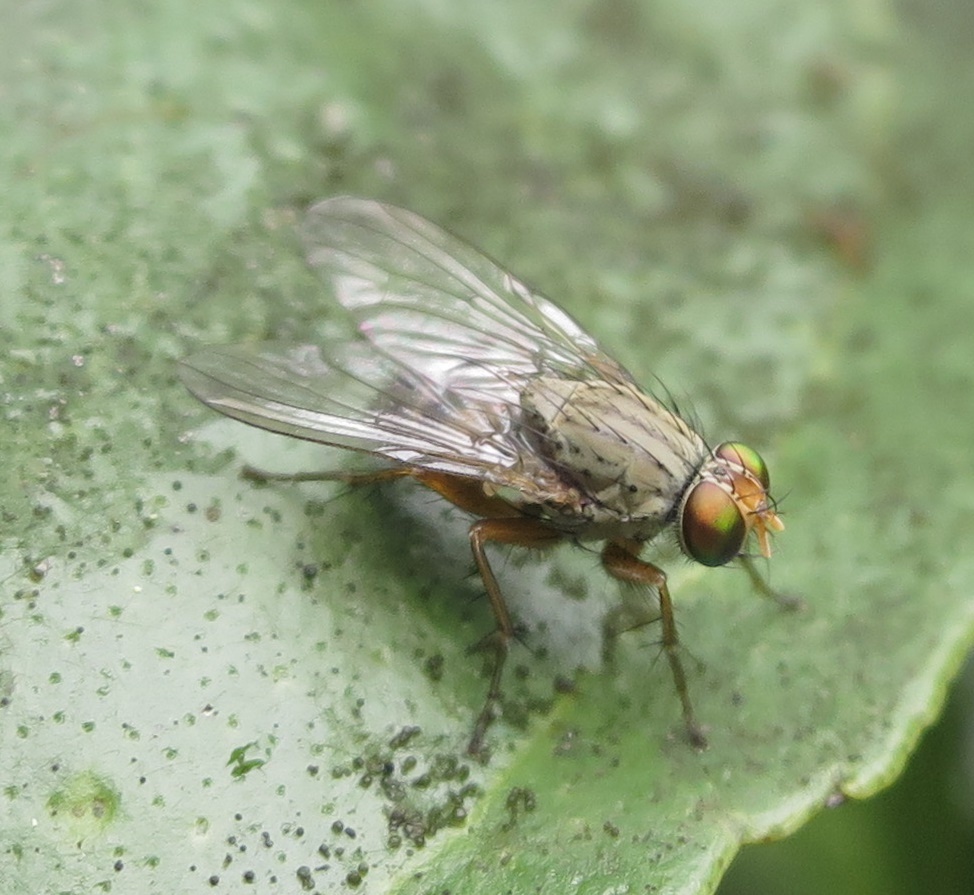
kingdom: Animalia
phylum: Arthropoda
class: Insecta
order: Diptera
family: Muscidae
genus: Pygophora
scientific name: Pygophora apicalis
